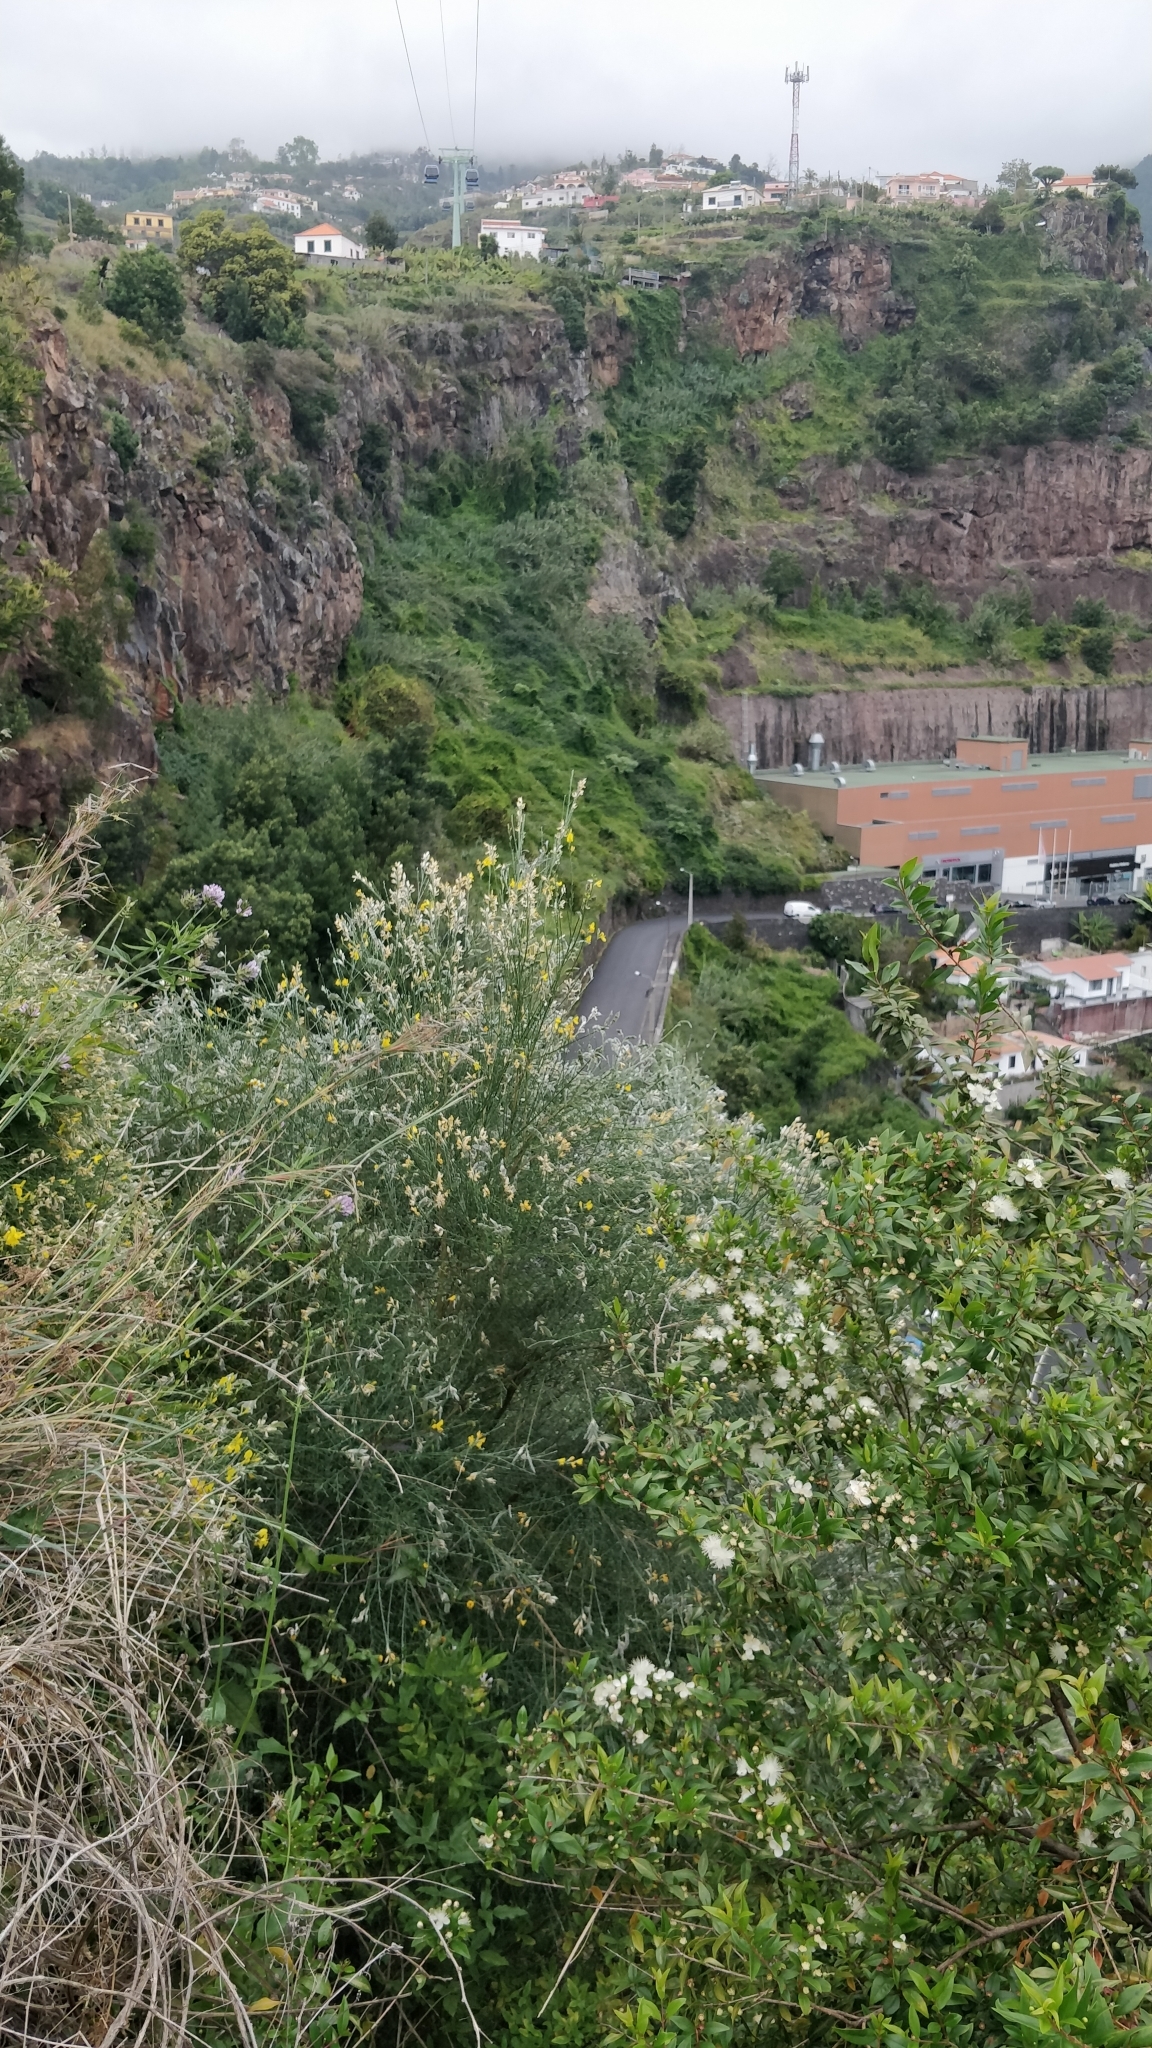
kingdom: Plantae
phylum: Tracheophyta
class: Magnoliopsida
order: Fabales
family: Fabaceae
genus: Genista
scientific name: Genista tenera
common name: Madeira broom
